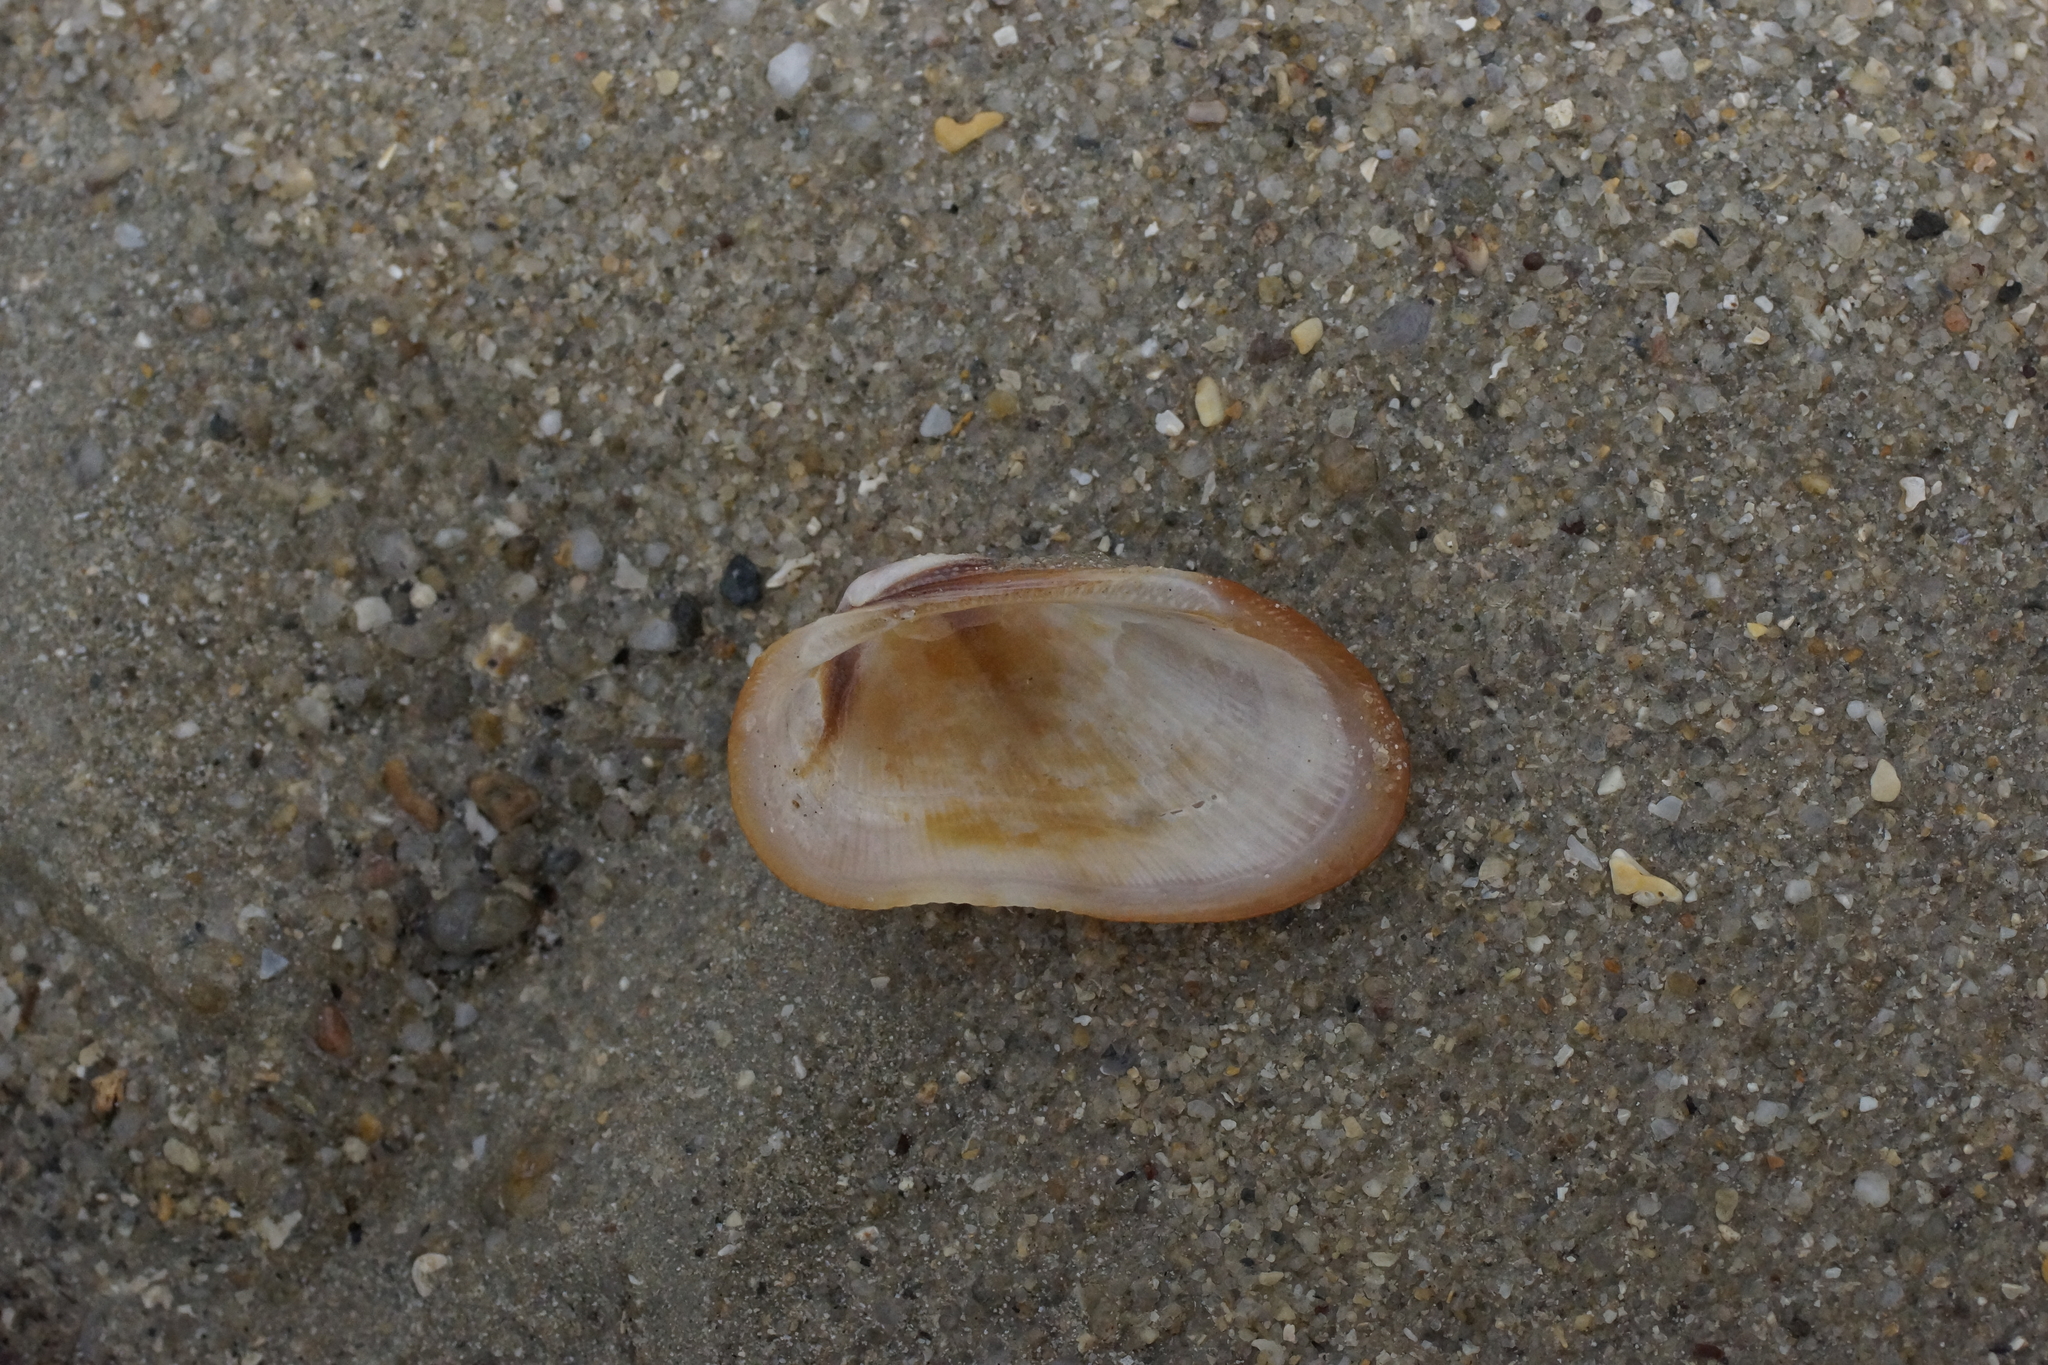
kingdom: Animalia
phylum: Mollusca
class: Bivalvia
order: Arcida
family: Arcidae
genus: Barbatia
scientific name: Barbatia amygdalumtostum
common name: Burnt-almond ark
